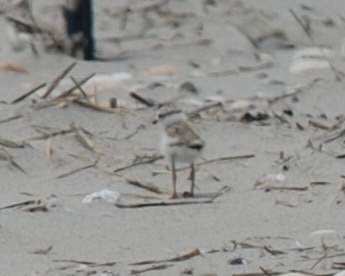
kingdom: Animalia
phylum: Chordata
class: Aves
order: Charadriiformes
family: Charadriidae
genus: Charadrius
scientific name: Charadrius melodus
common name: Piping plover
